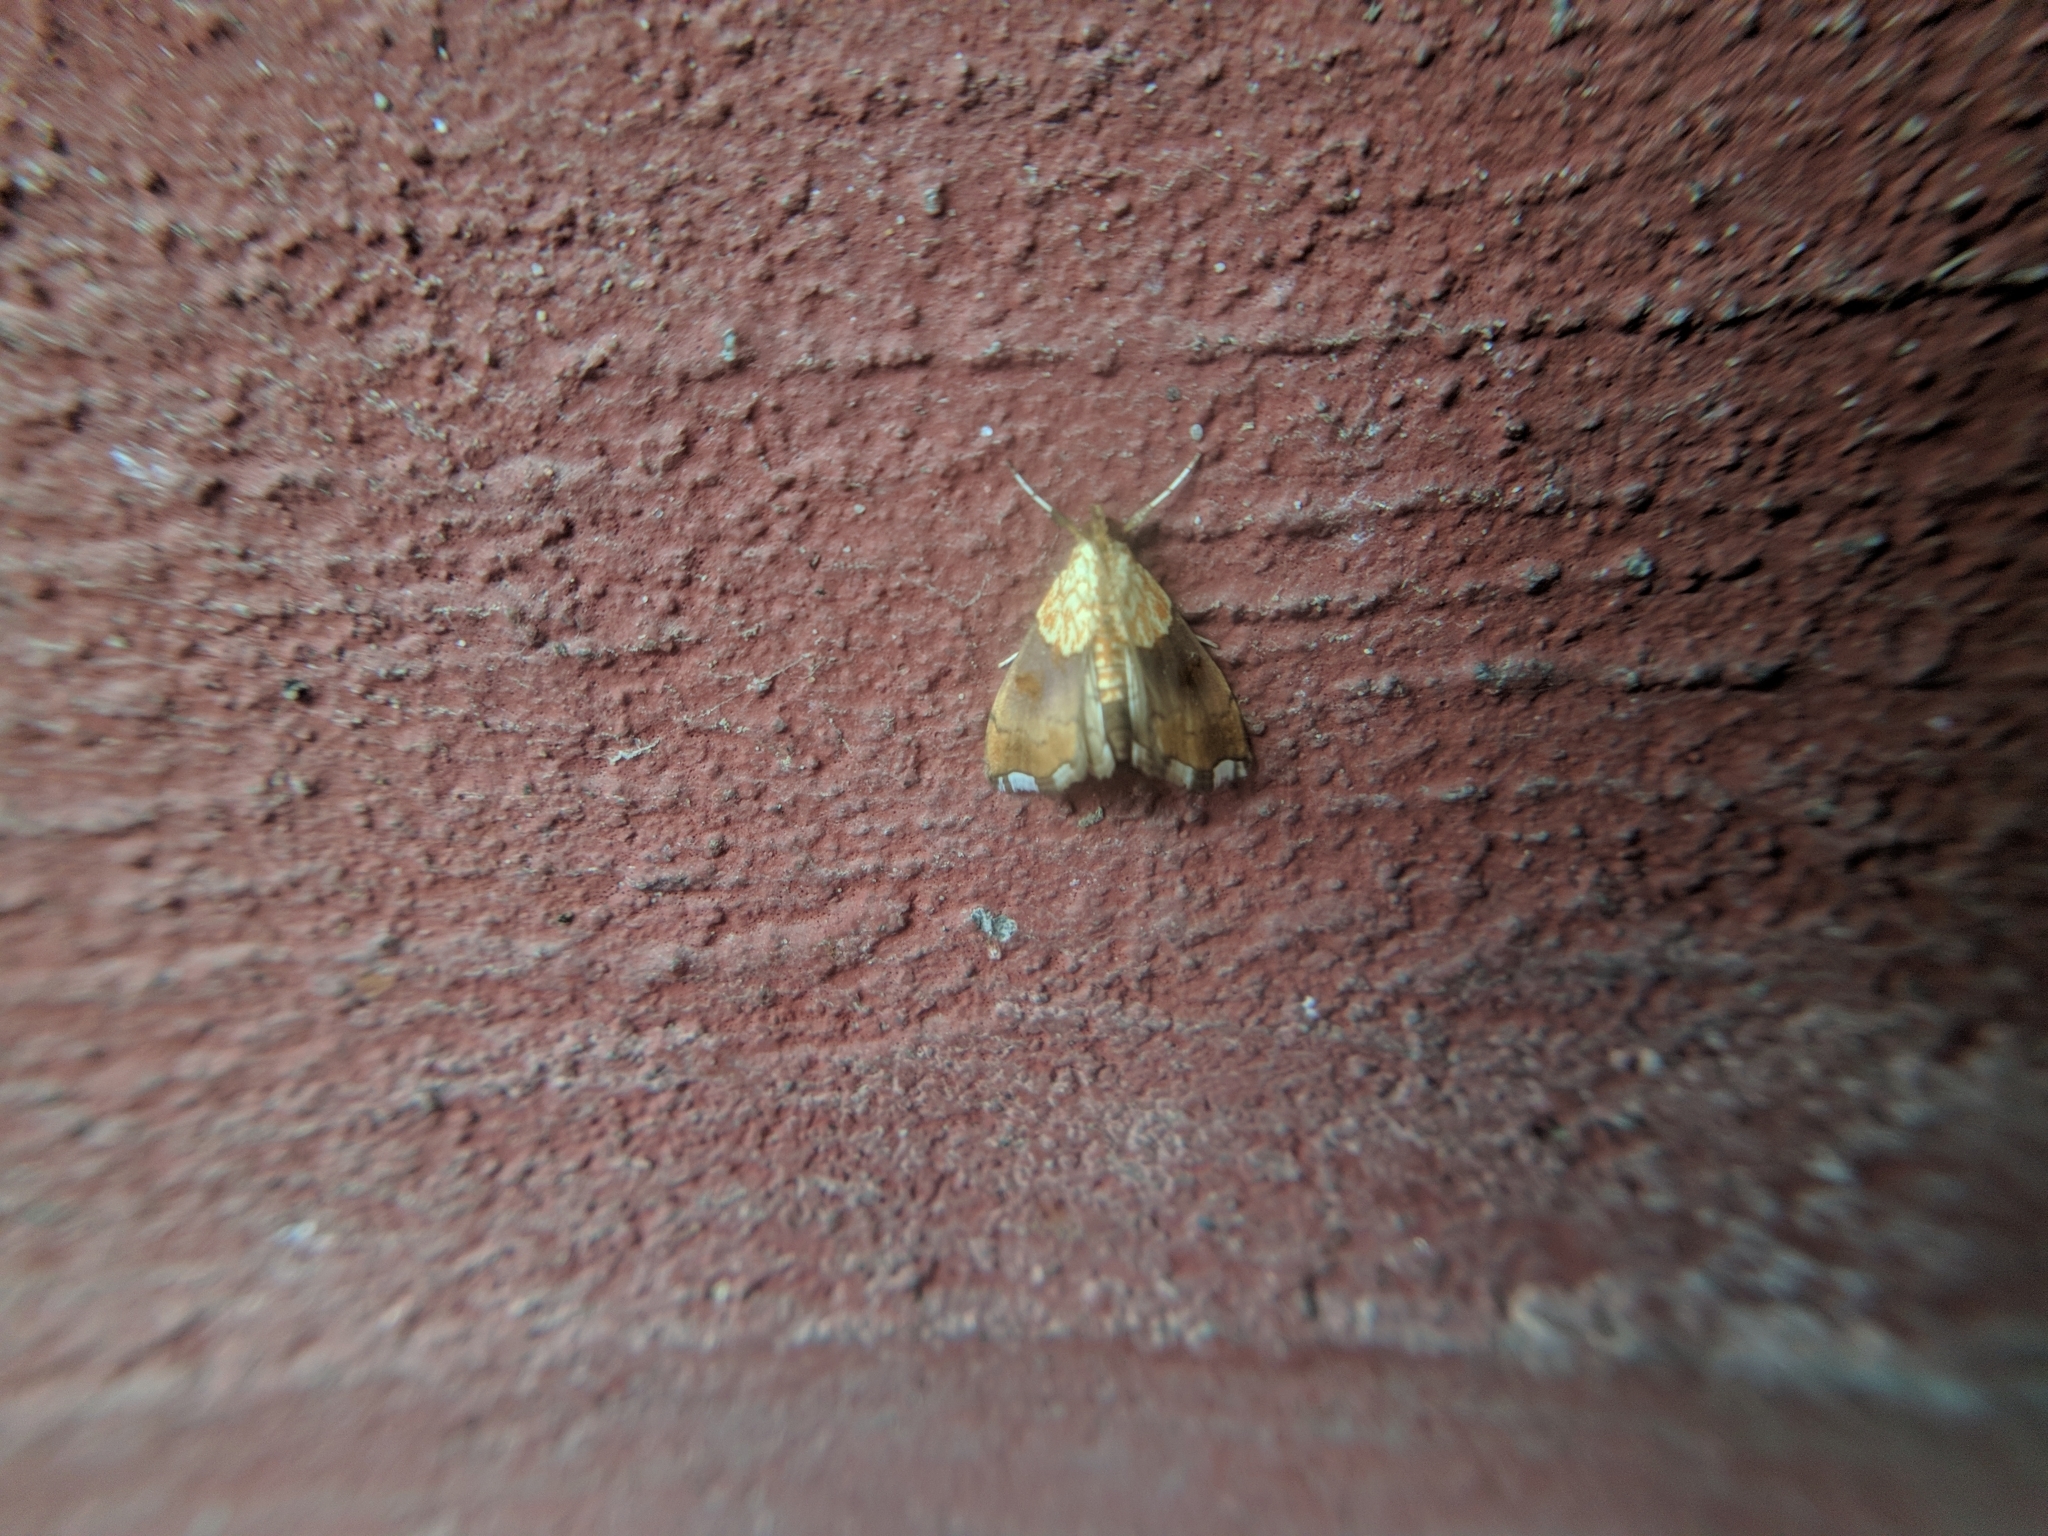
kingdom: Animalia
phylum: Arthropoda
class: Insecta
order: Lepidoptera
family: Crambidae
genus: Agrotera
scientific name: Agrotera nemoralis
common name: Beautiful pearl
